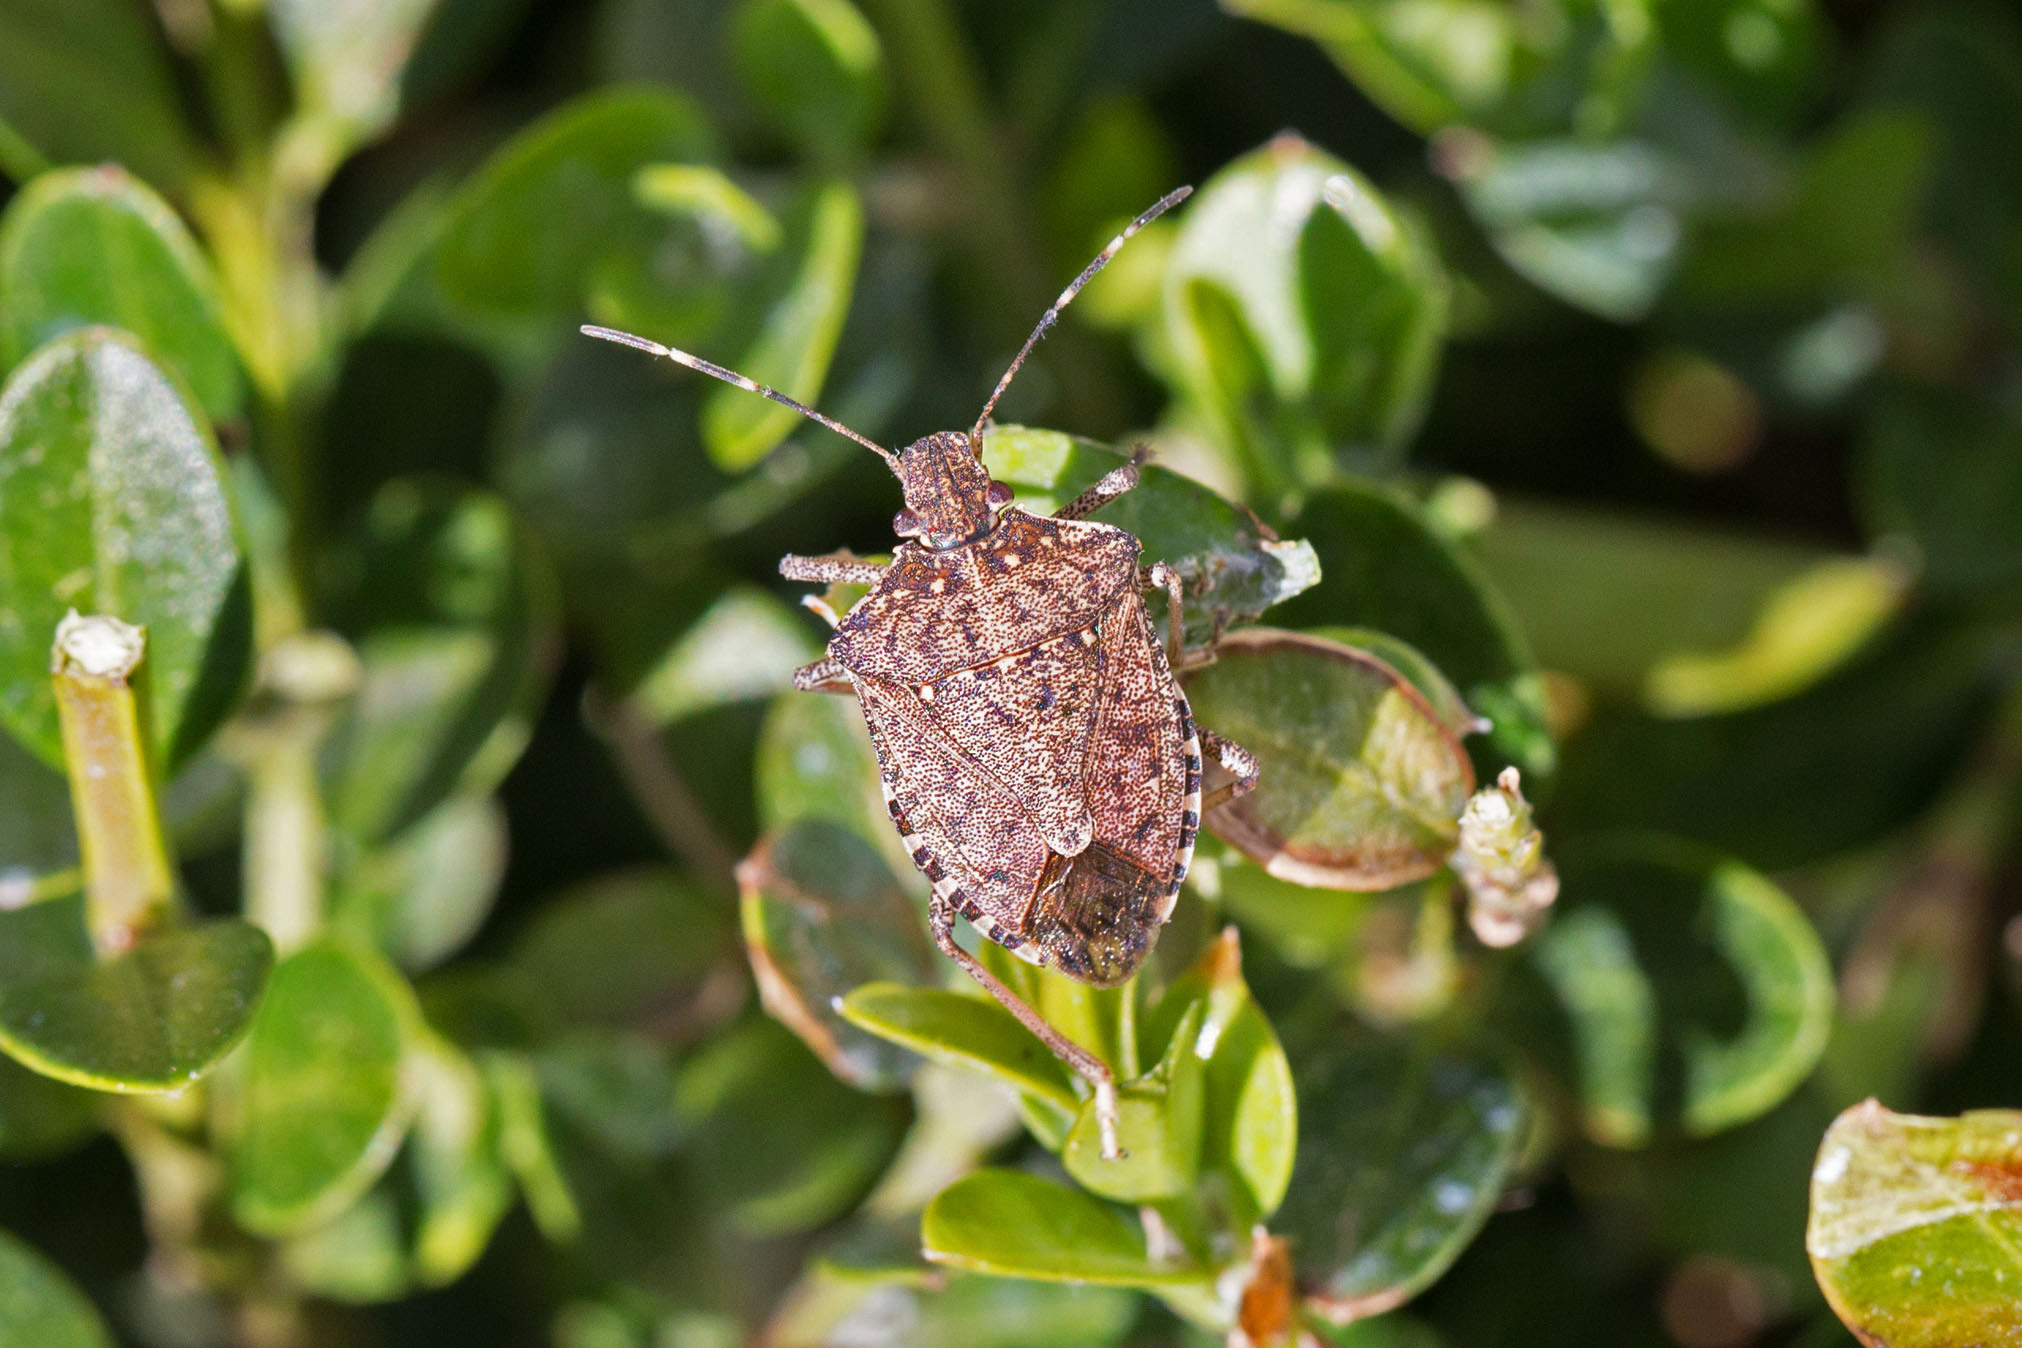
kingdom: Animalia
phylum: Arthropoda
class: Insecta
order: Hemiptera
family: Pentatomidae
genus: Halyomorpha
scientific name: Halyomorpha halys
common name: Brown marmorated stink bug
